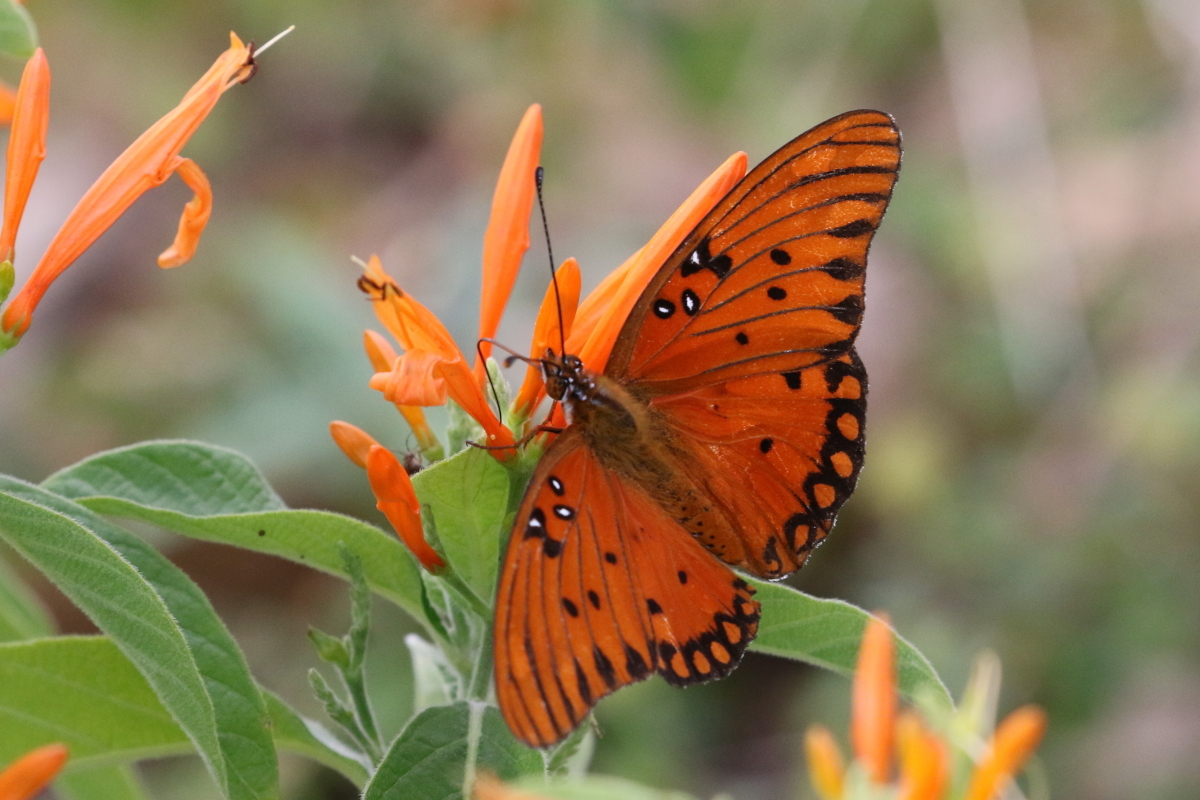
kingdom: Animalia
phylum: Arthropoda
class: Insecta
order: Lepidoptera
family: Nymphalidae
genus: Dione
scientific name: Dione vanillae
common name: Gulf fritillary
